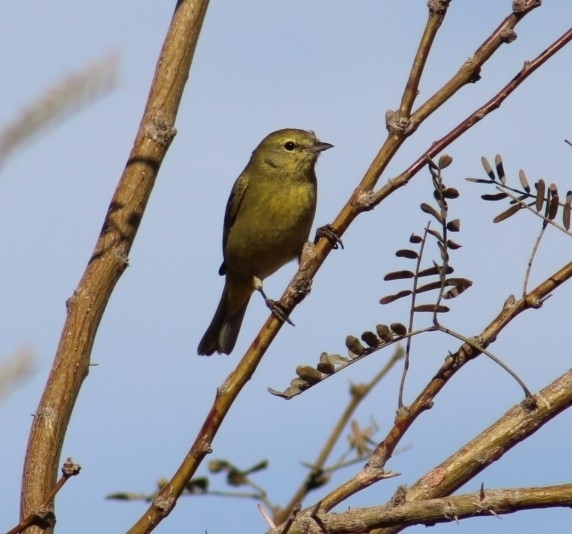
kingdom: Animalia
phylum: Chordata
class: Aves
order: Passeriformes
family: Parulidae
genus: Leiothlypis
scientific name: Leiothlypis celata
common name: Orange-crowned warbler
